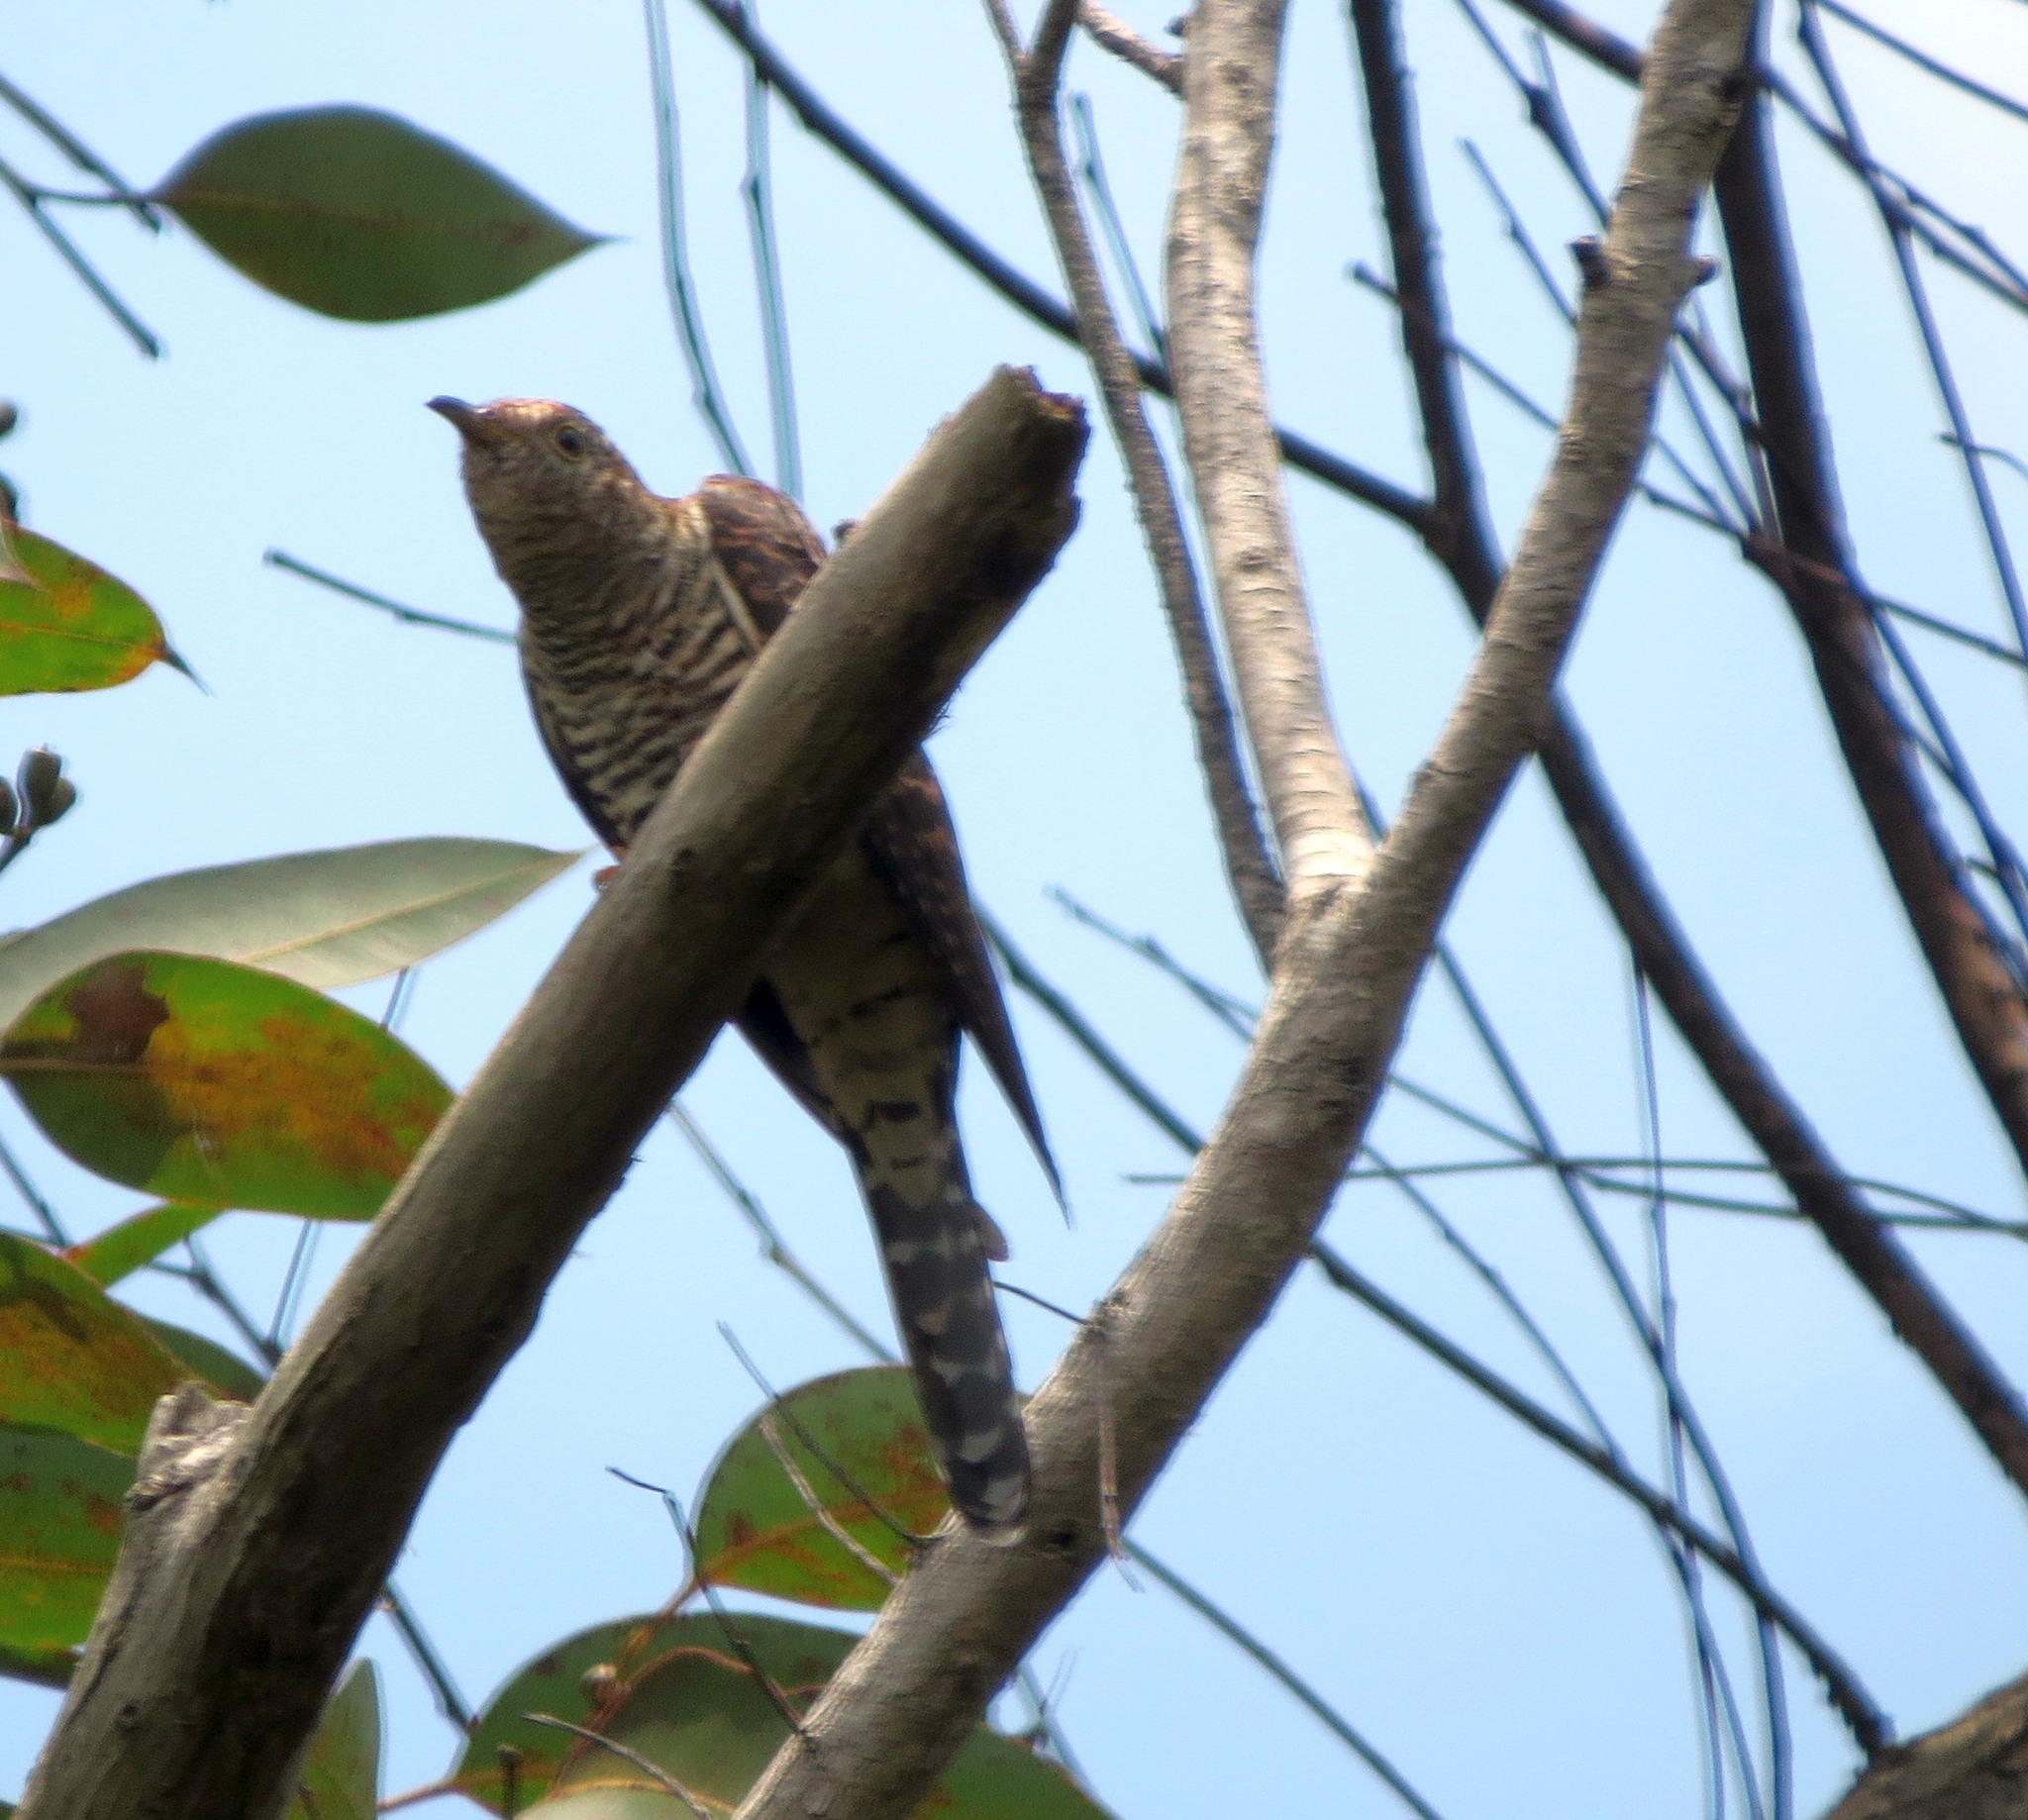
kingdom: Animalia
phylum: Chordata
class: Aves
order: Cuculiformes
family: Cuculidae
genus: Cuculus
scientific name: Cuculus rochii
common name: Madagascar cuckoo
